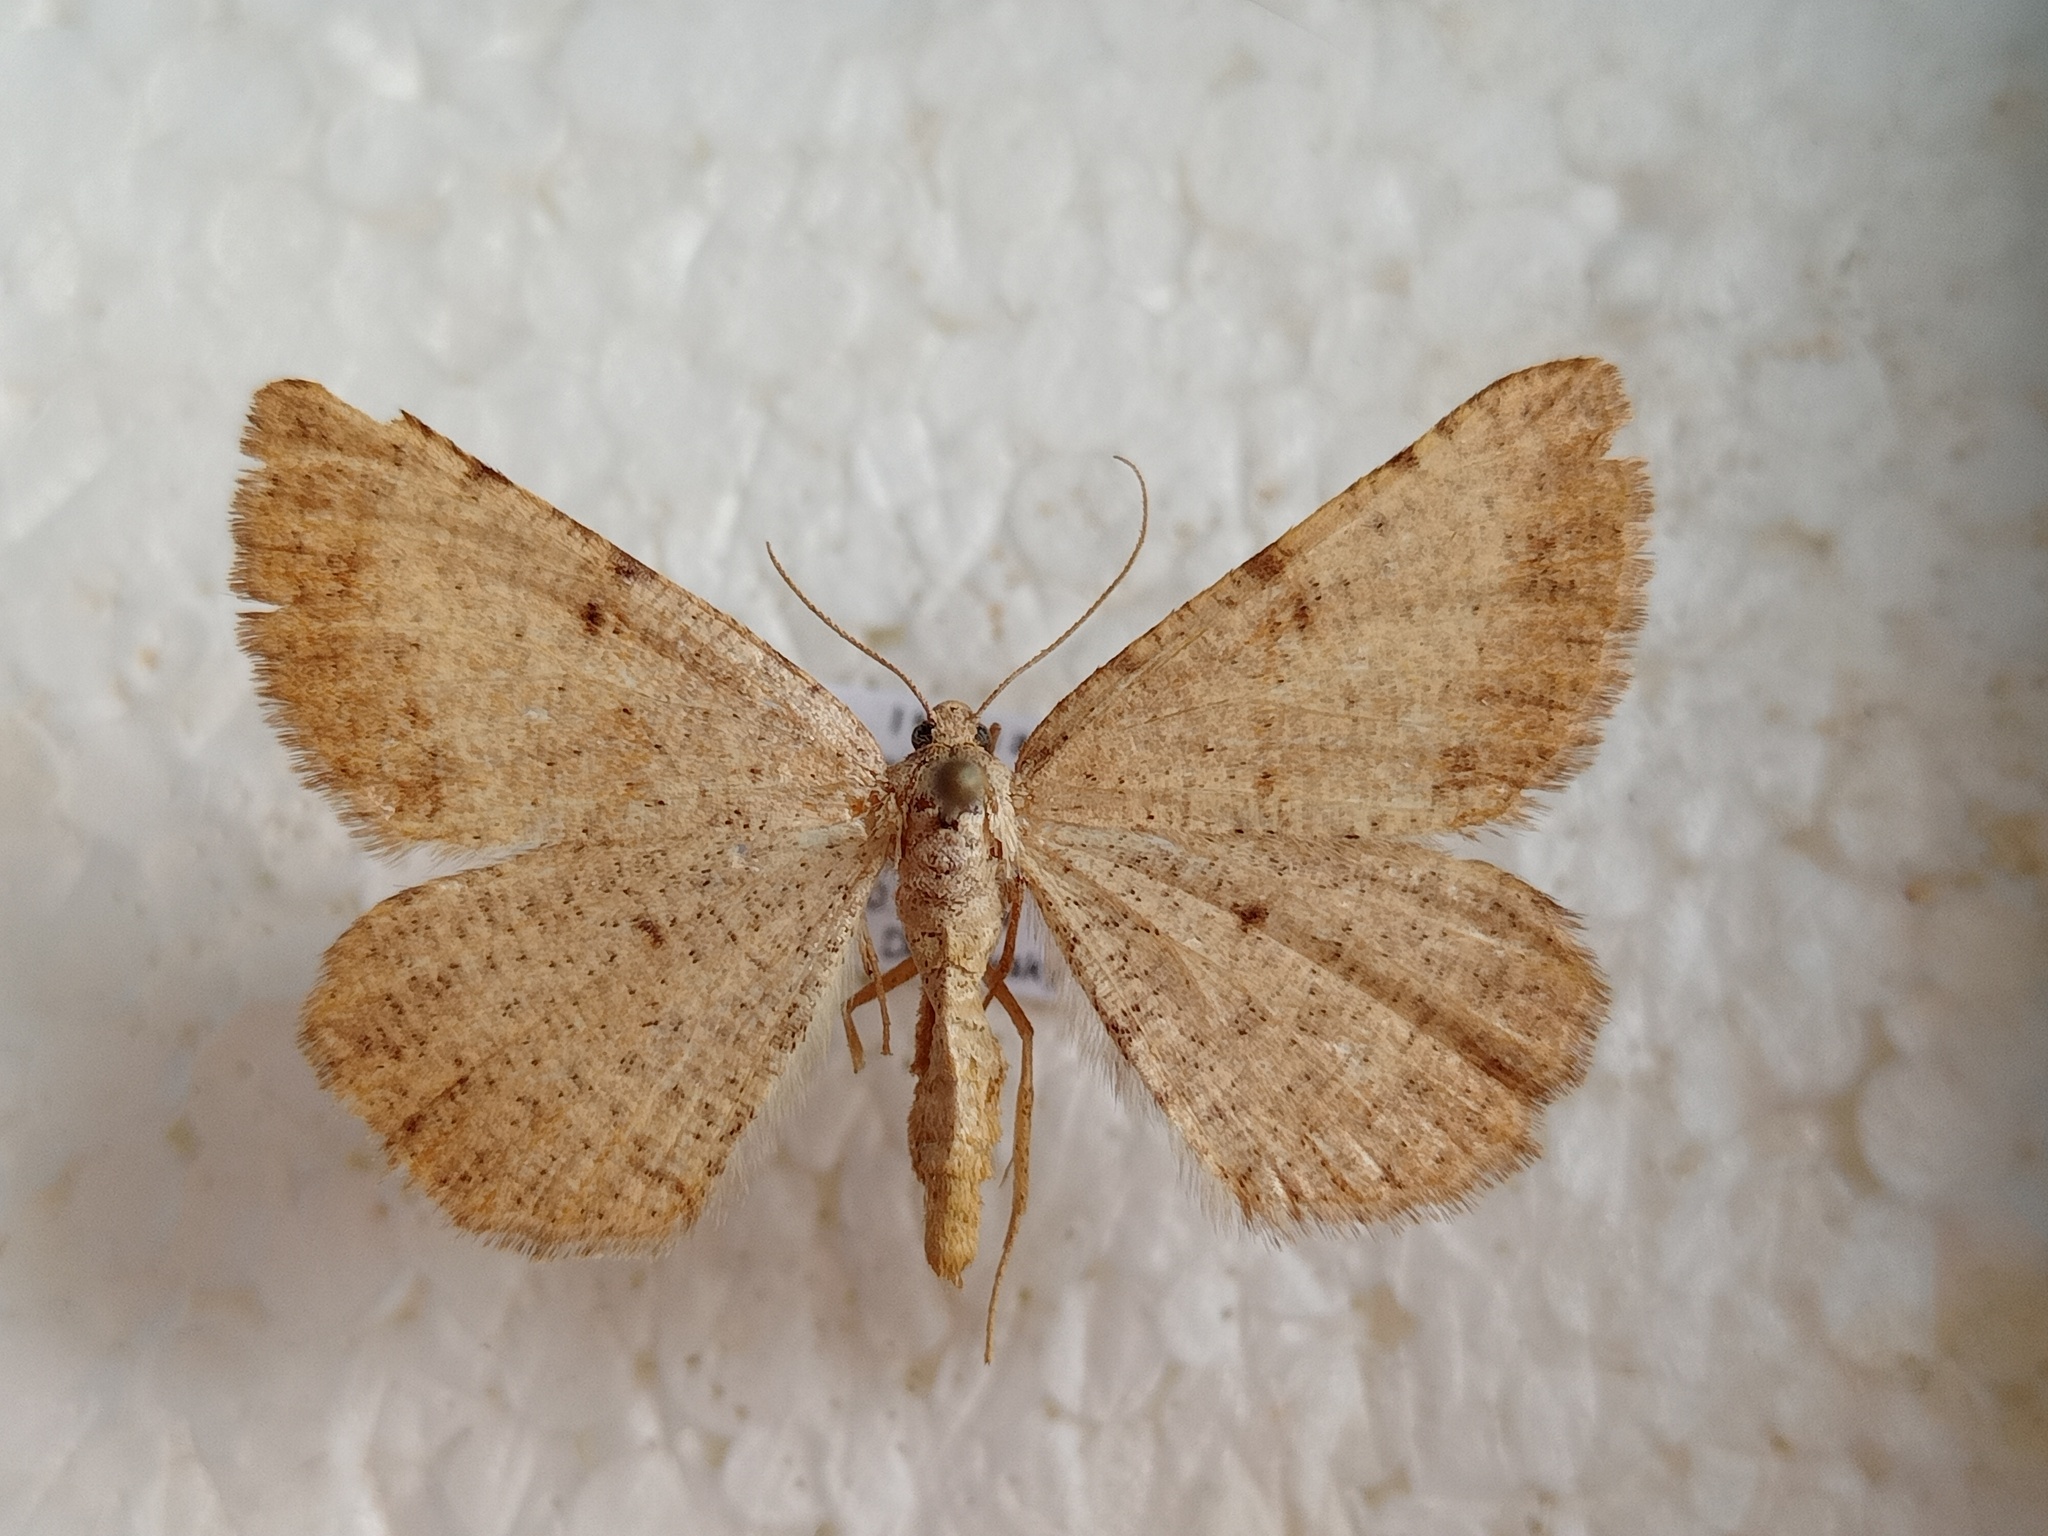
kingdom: Animalia
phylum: Arthropoda
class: Insecta
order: Lepidoptera
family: Geometridae
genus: Selidosema
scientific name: Selidosema plumaria
